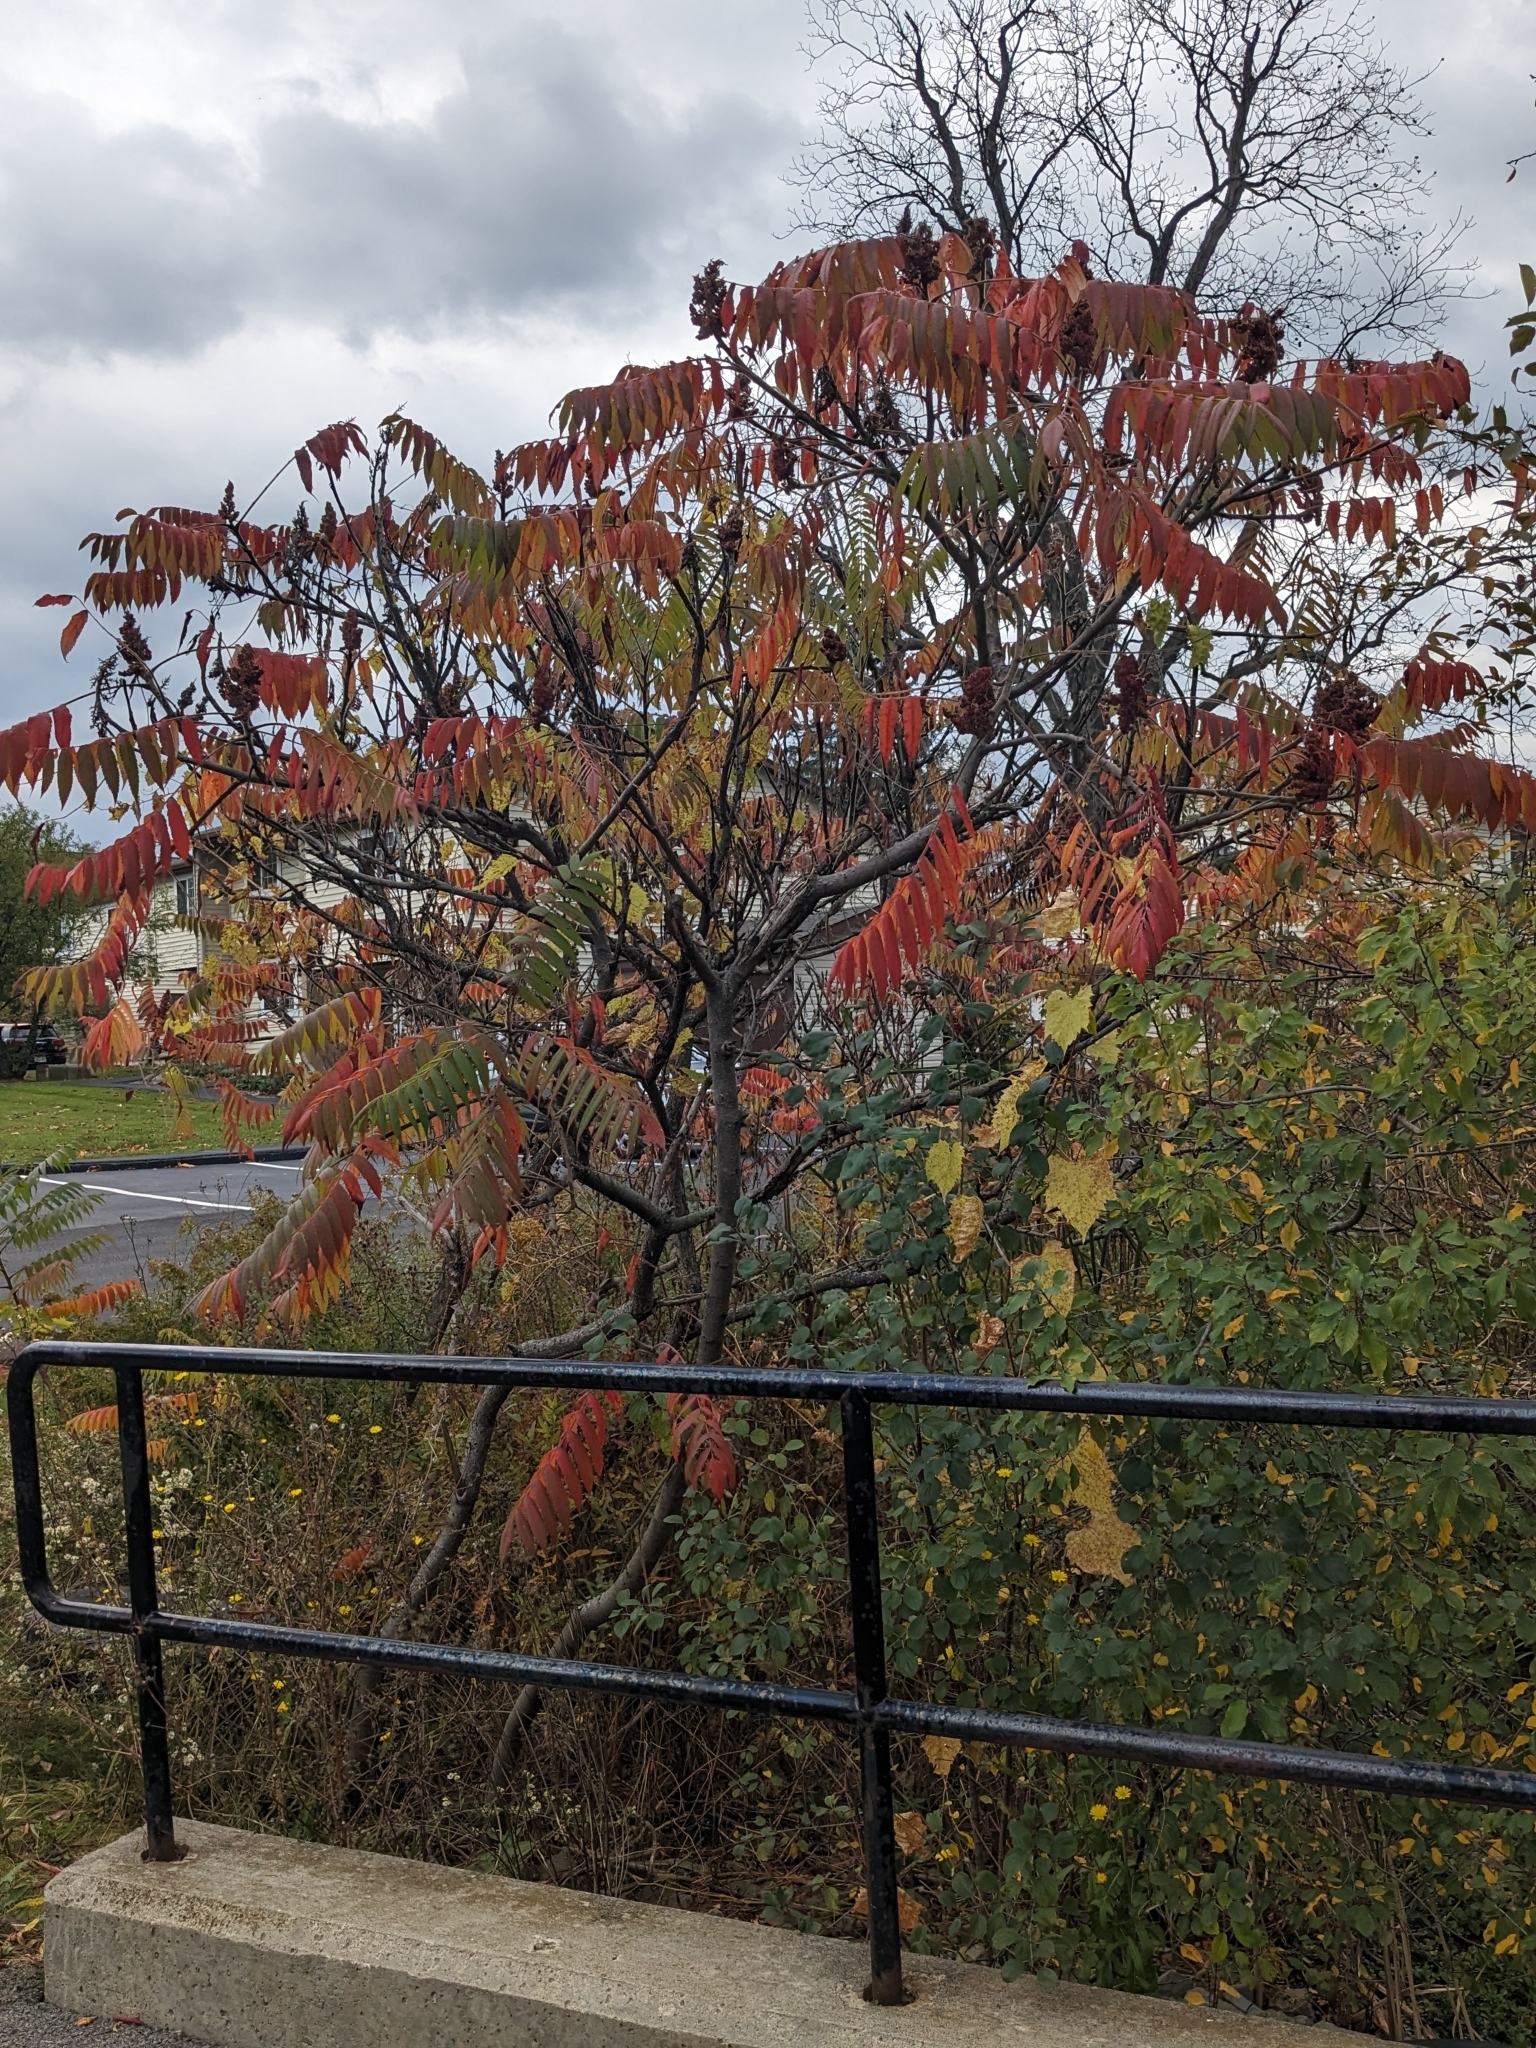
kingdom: Plantae
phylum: Tracheophyta
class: Magnoliopsida
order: Sapindales
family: Anacardiaceae
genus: Rhus
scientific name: Rhus typhina
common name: Staghorn sumac
